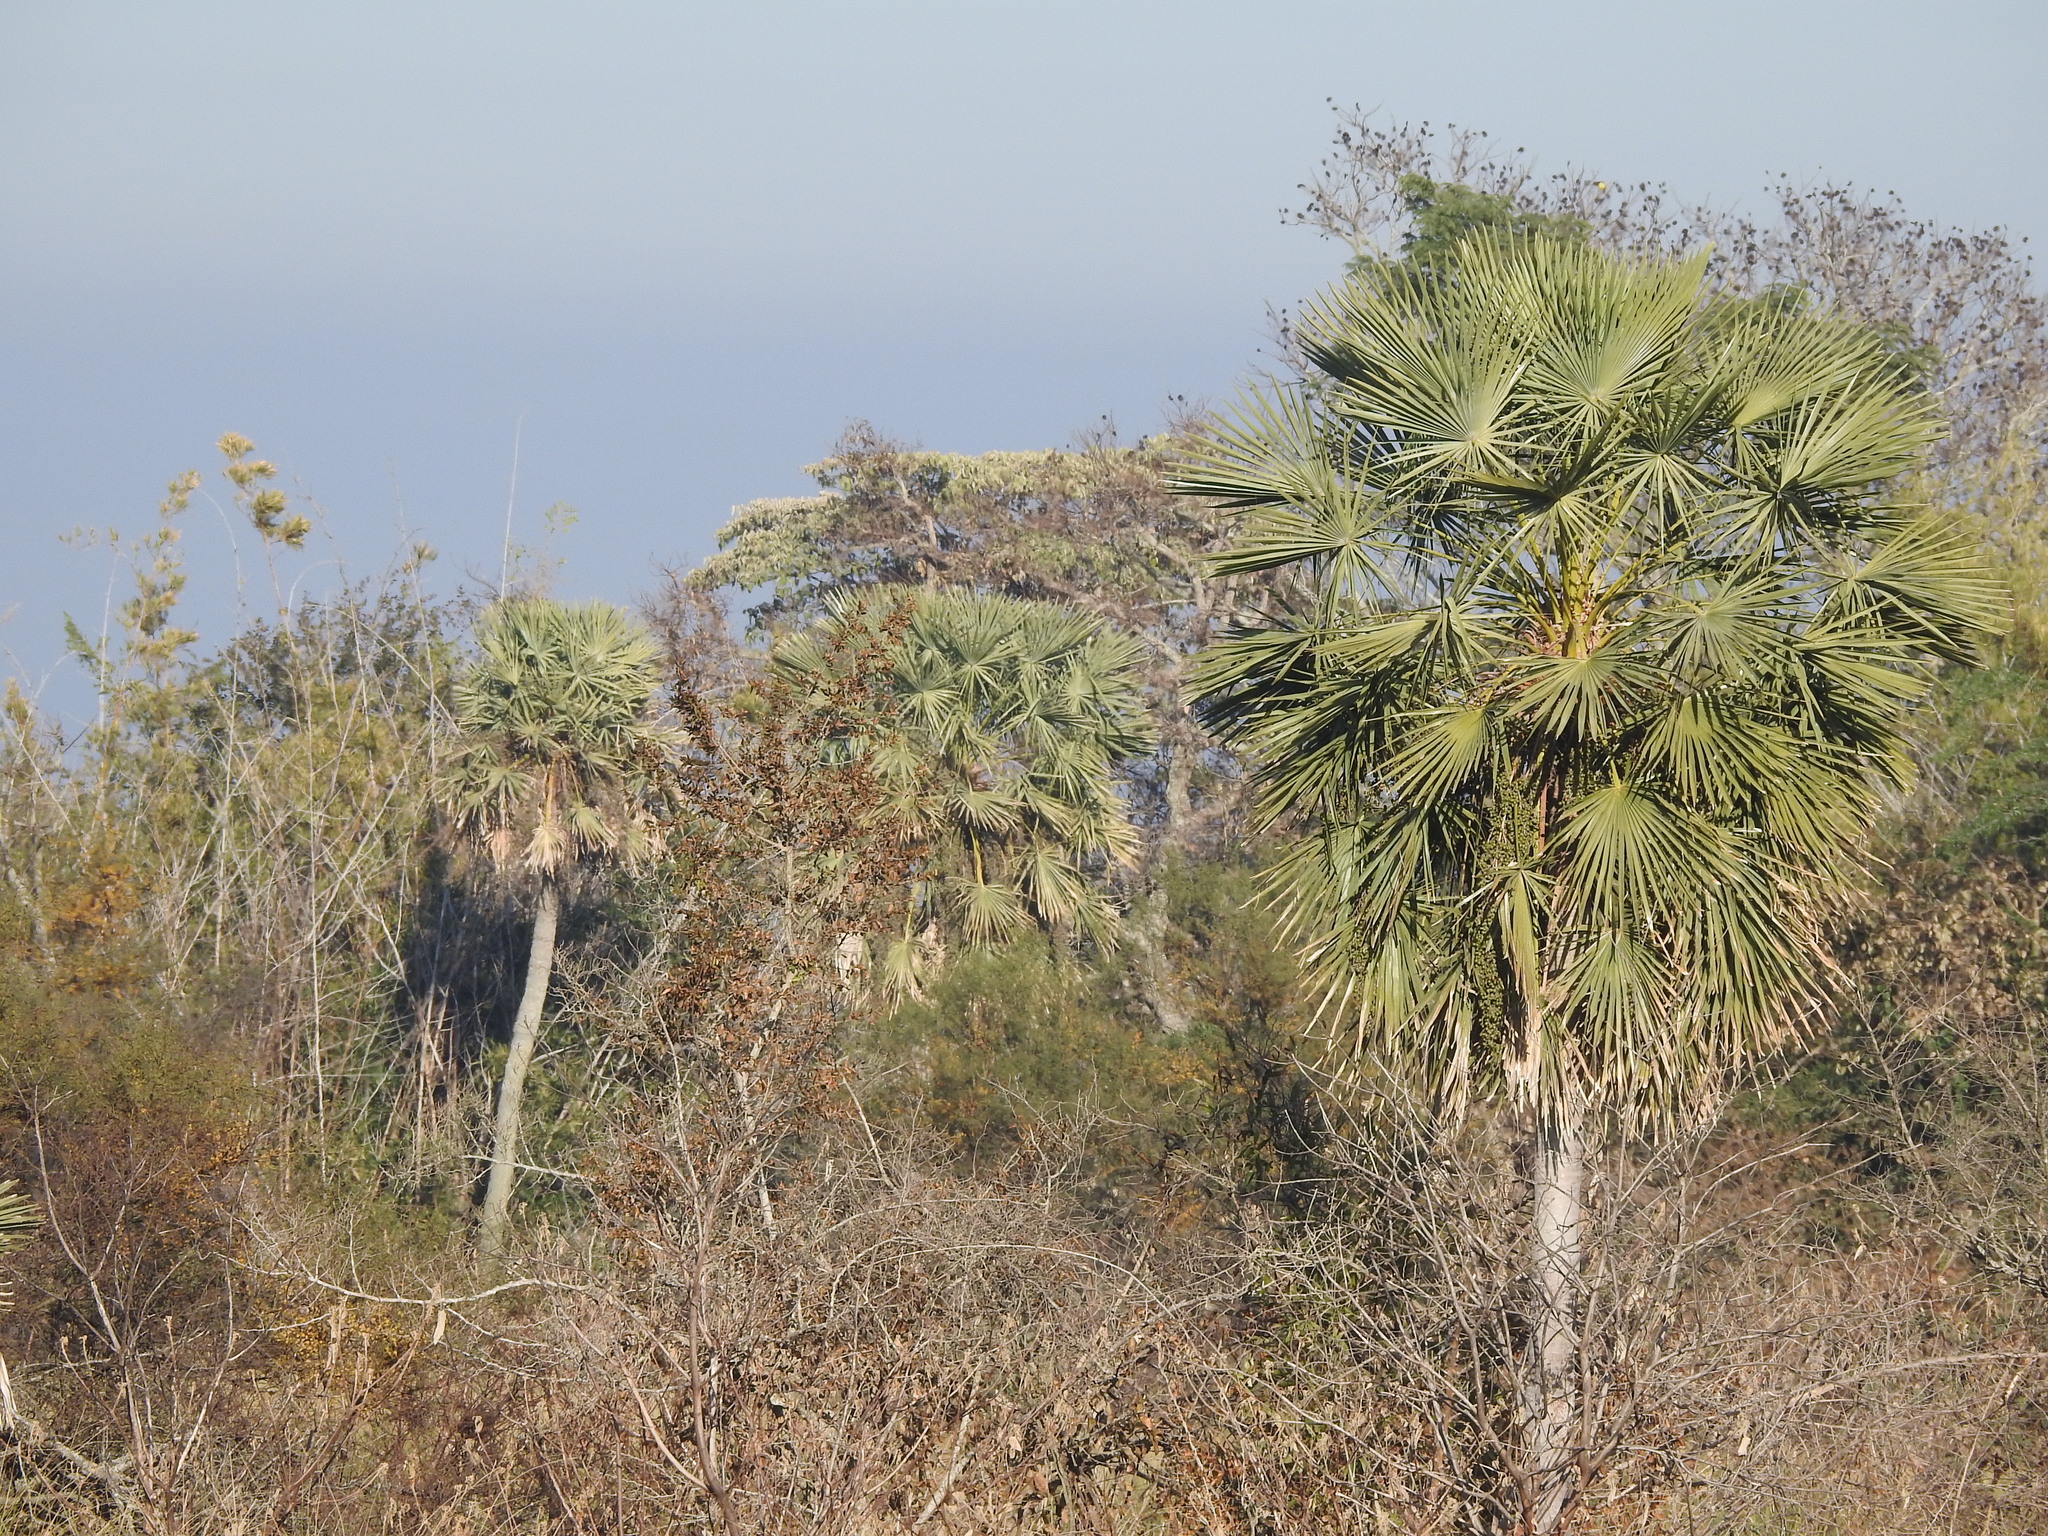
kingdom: Plantae
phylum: Tracheophyta
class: Liliopsida
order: Arecales
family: Arecaceae
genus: Copernicia
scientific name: Copernicia alba
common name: Caranday palm
